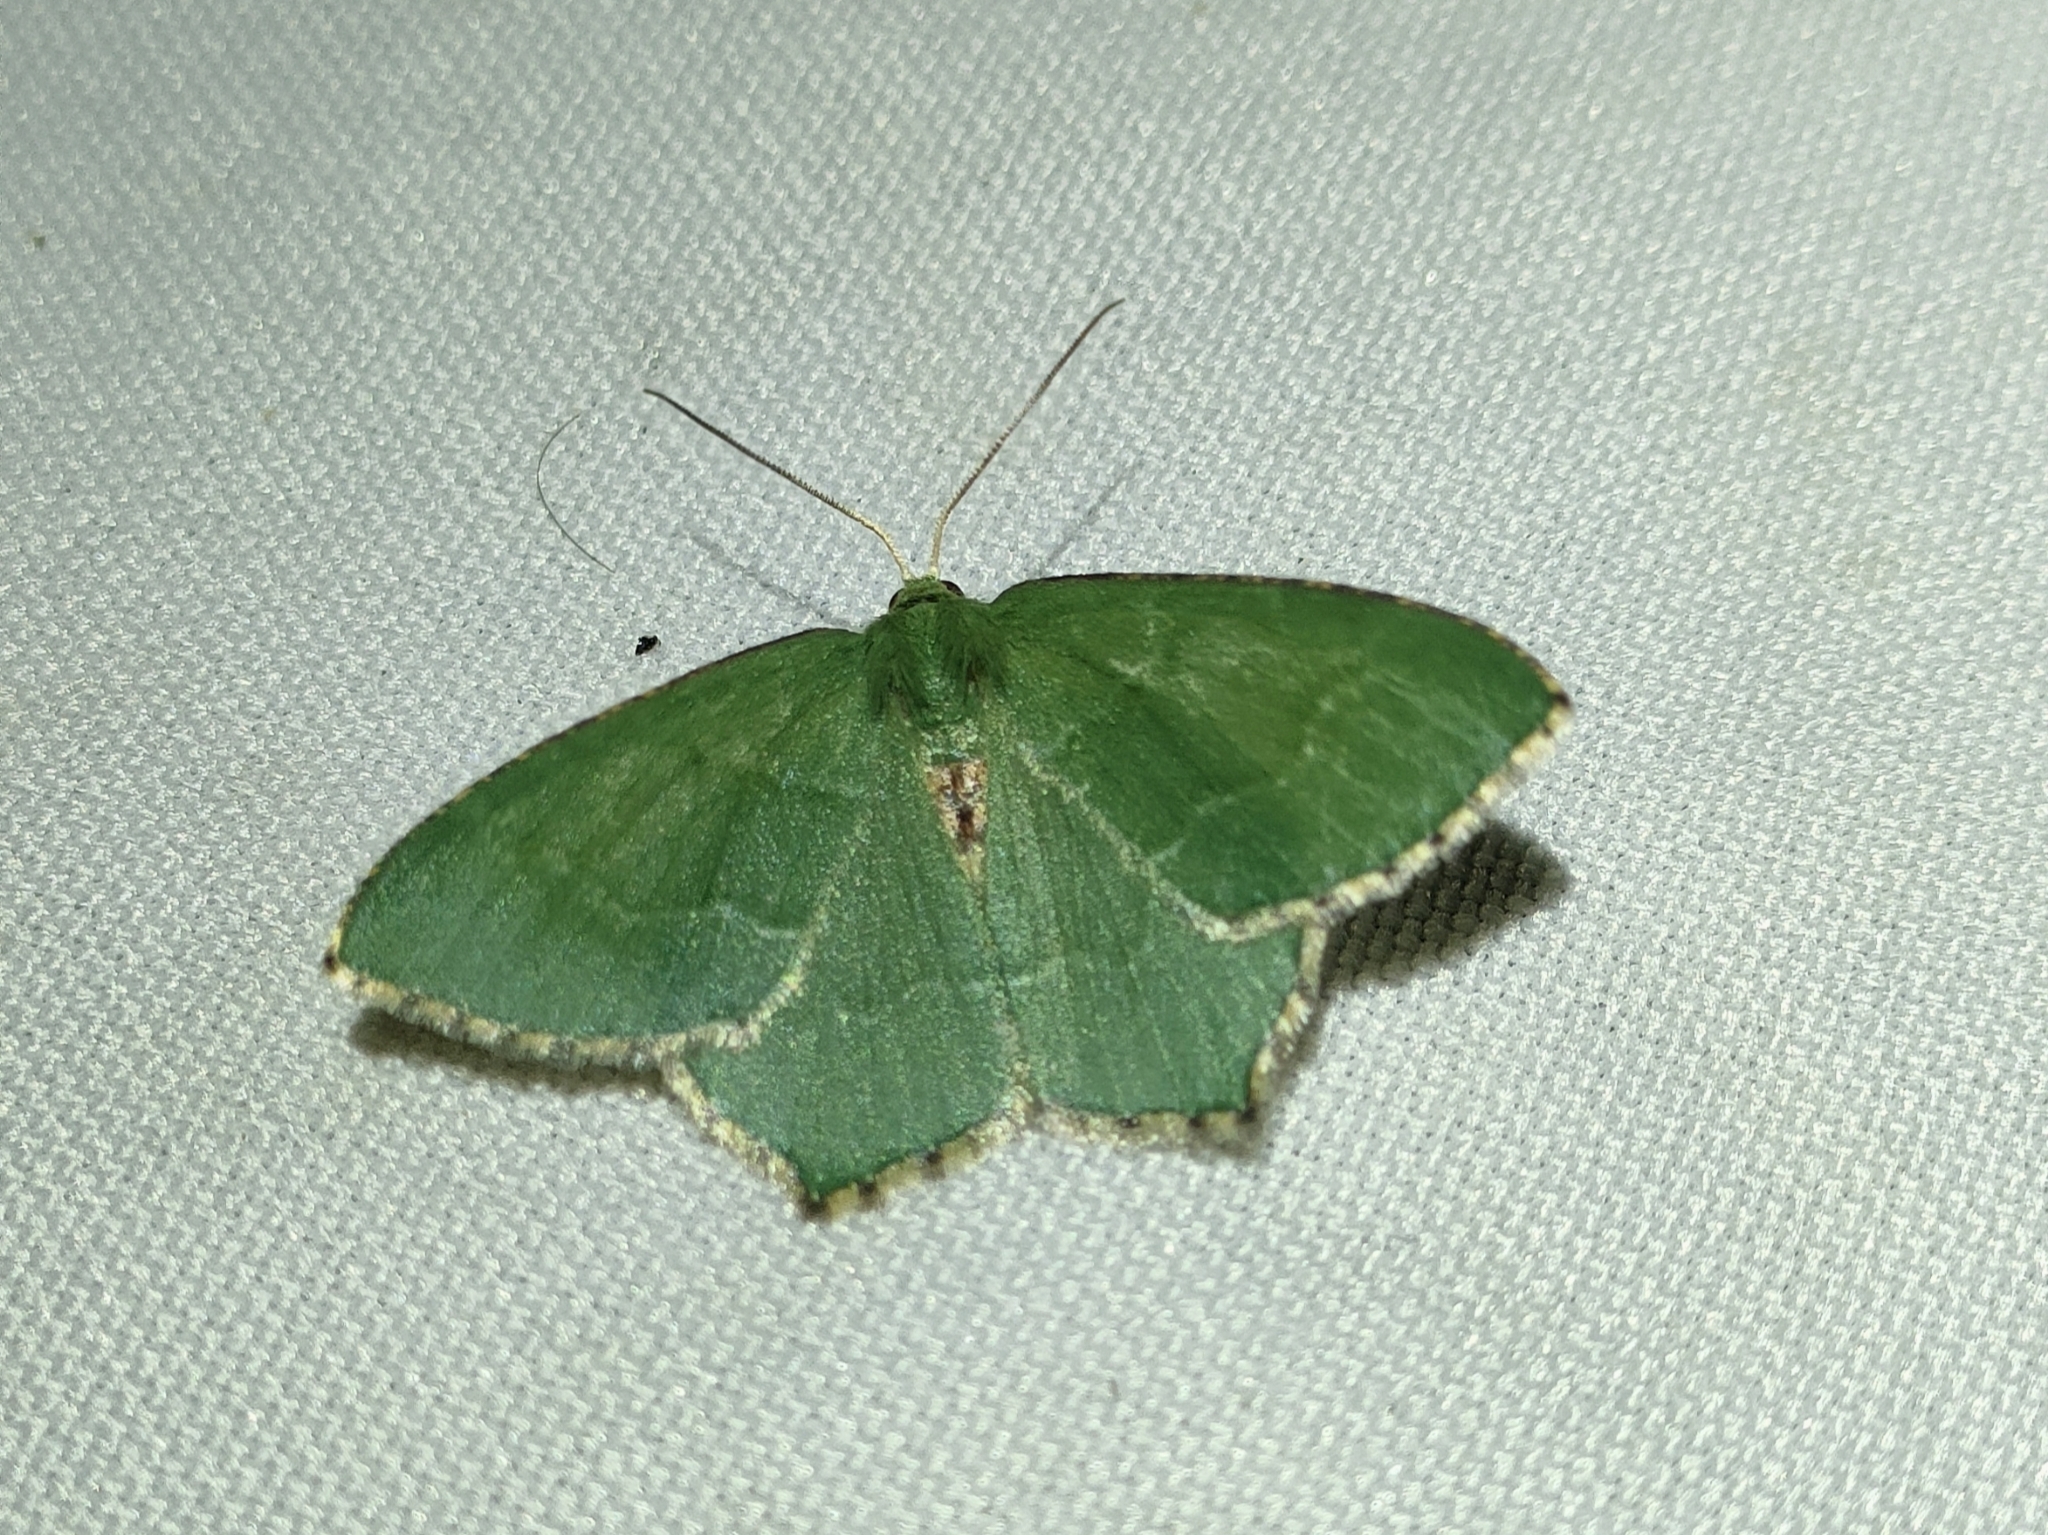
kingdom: Animalia
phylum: Arthropoda
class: Insecta
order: Lepidoptera
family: Geometridae
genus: Hemithea
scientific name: Hemithea aestivaria
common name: Common emerald
